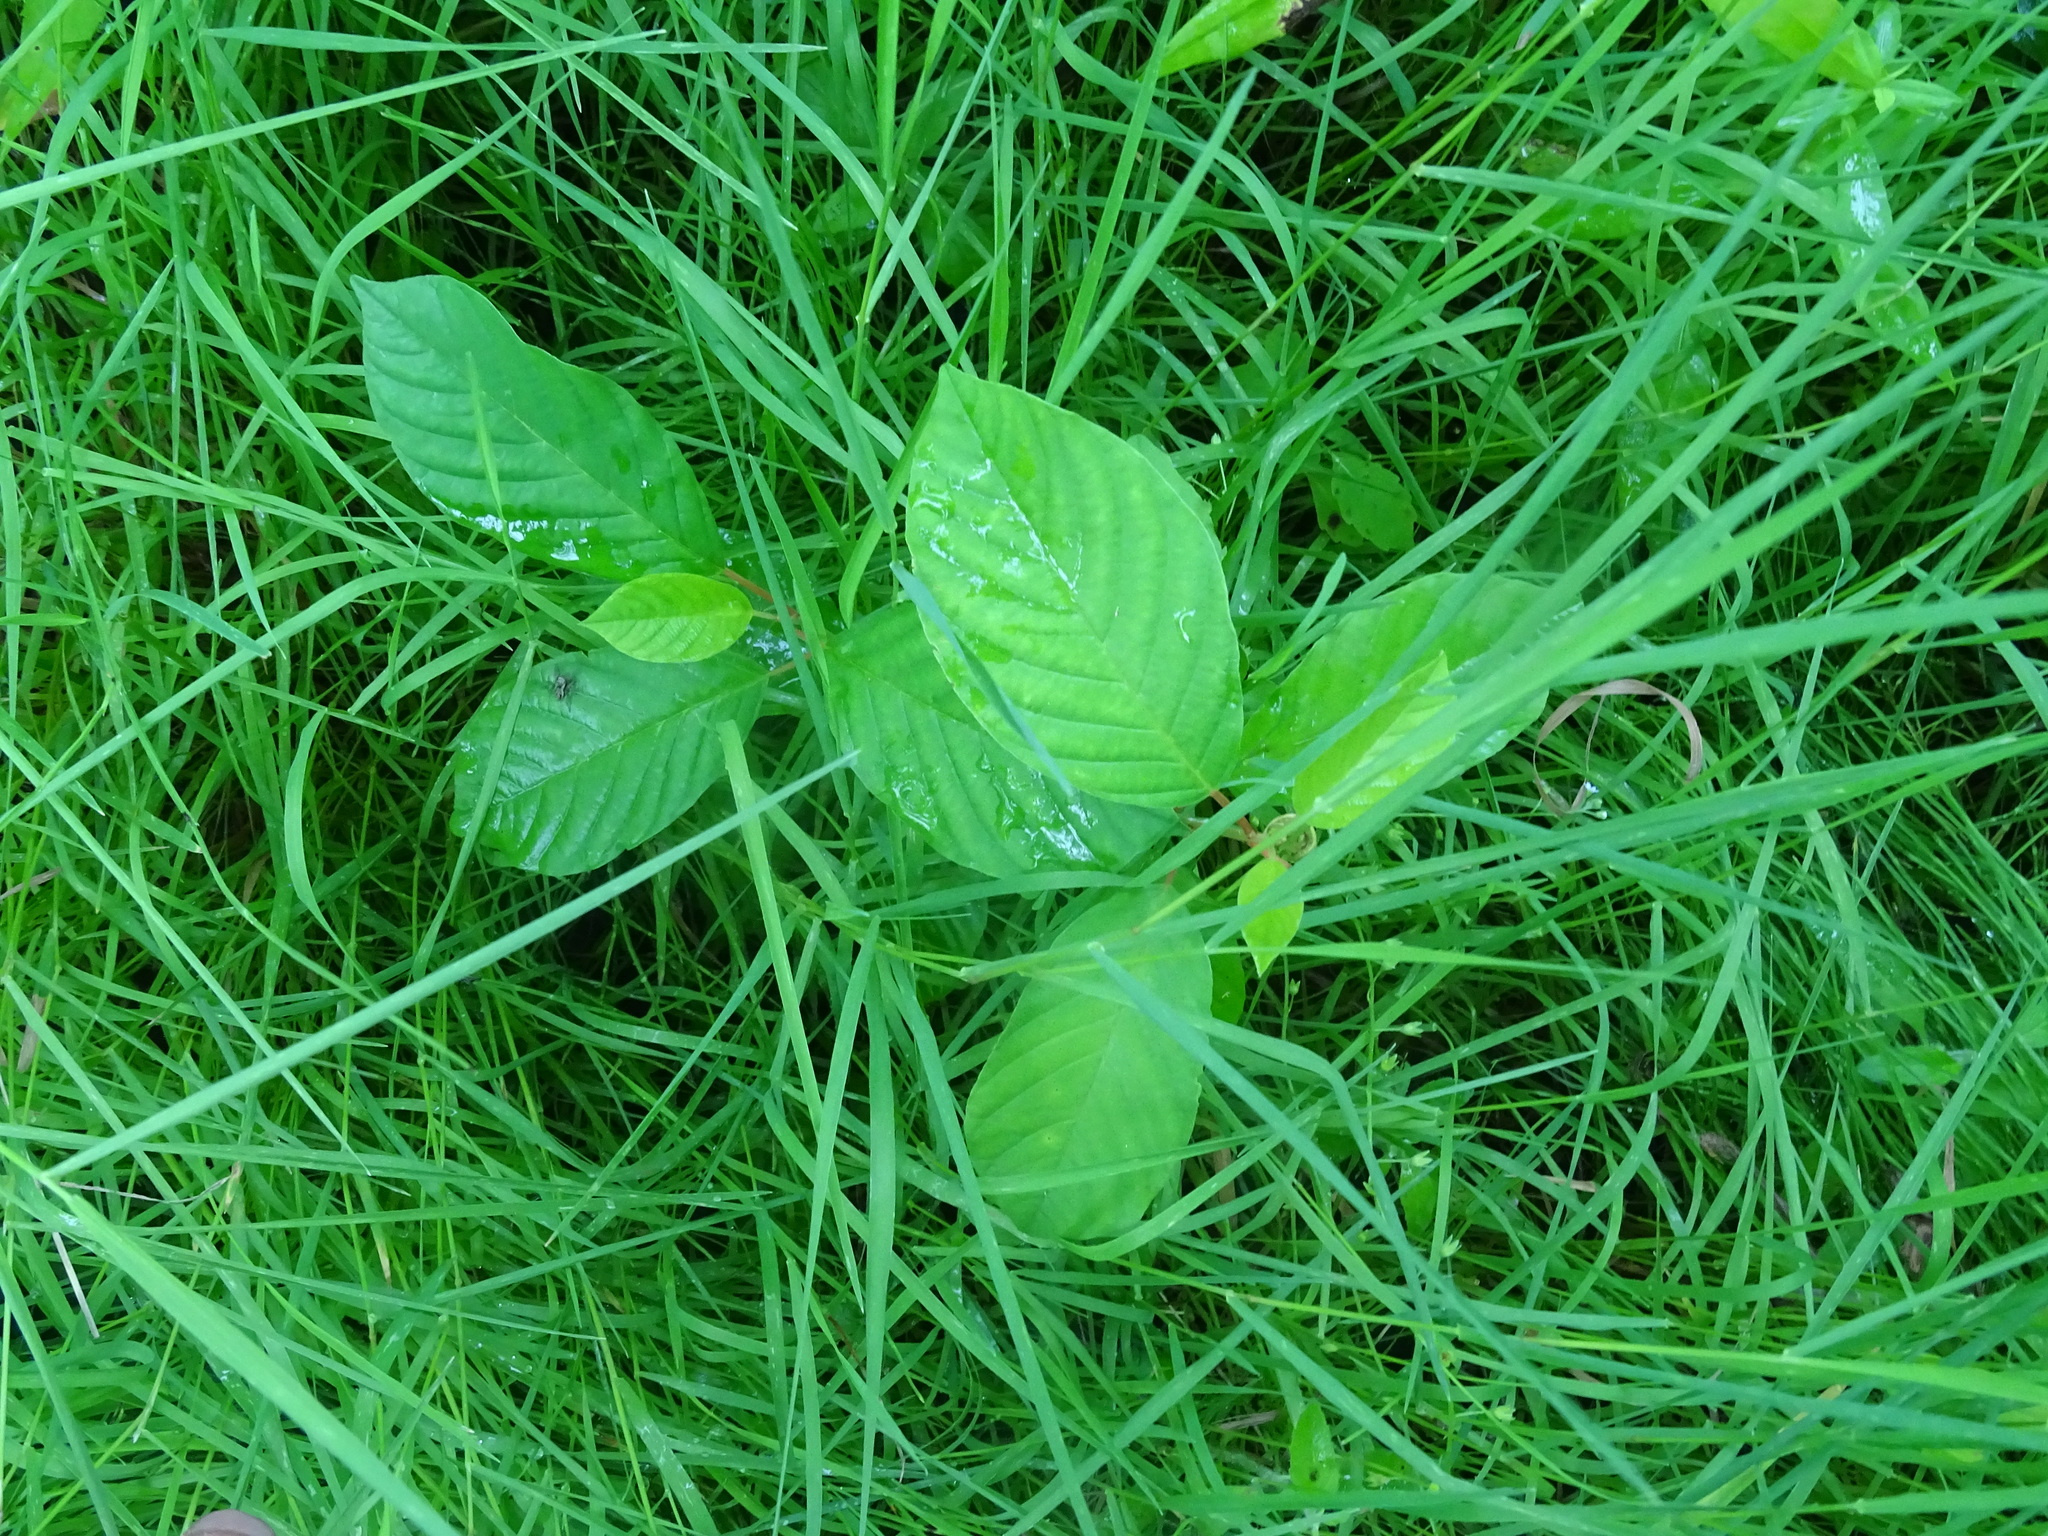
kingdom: Plantae
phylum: Tracheophyta
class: Magnoliopsida
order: Rosales
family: Rhamnaceae
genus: Frangula
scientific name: Frangula alnus
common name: Alder buckthorn
